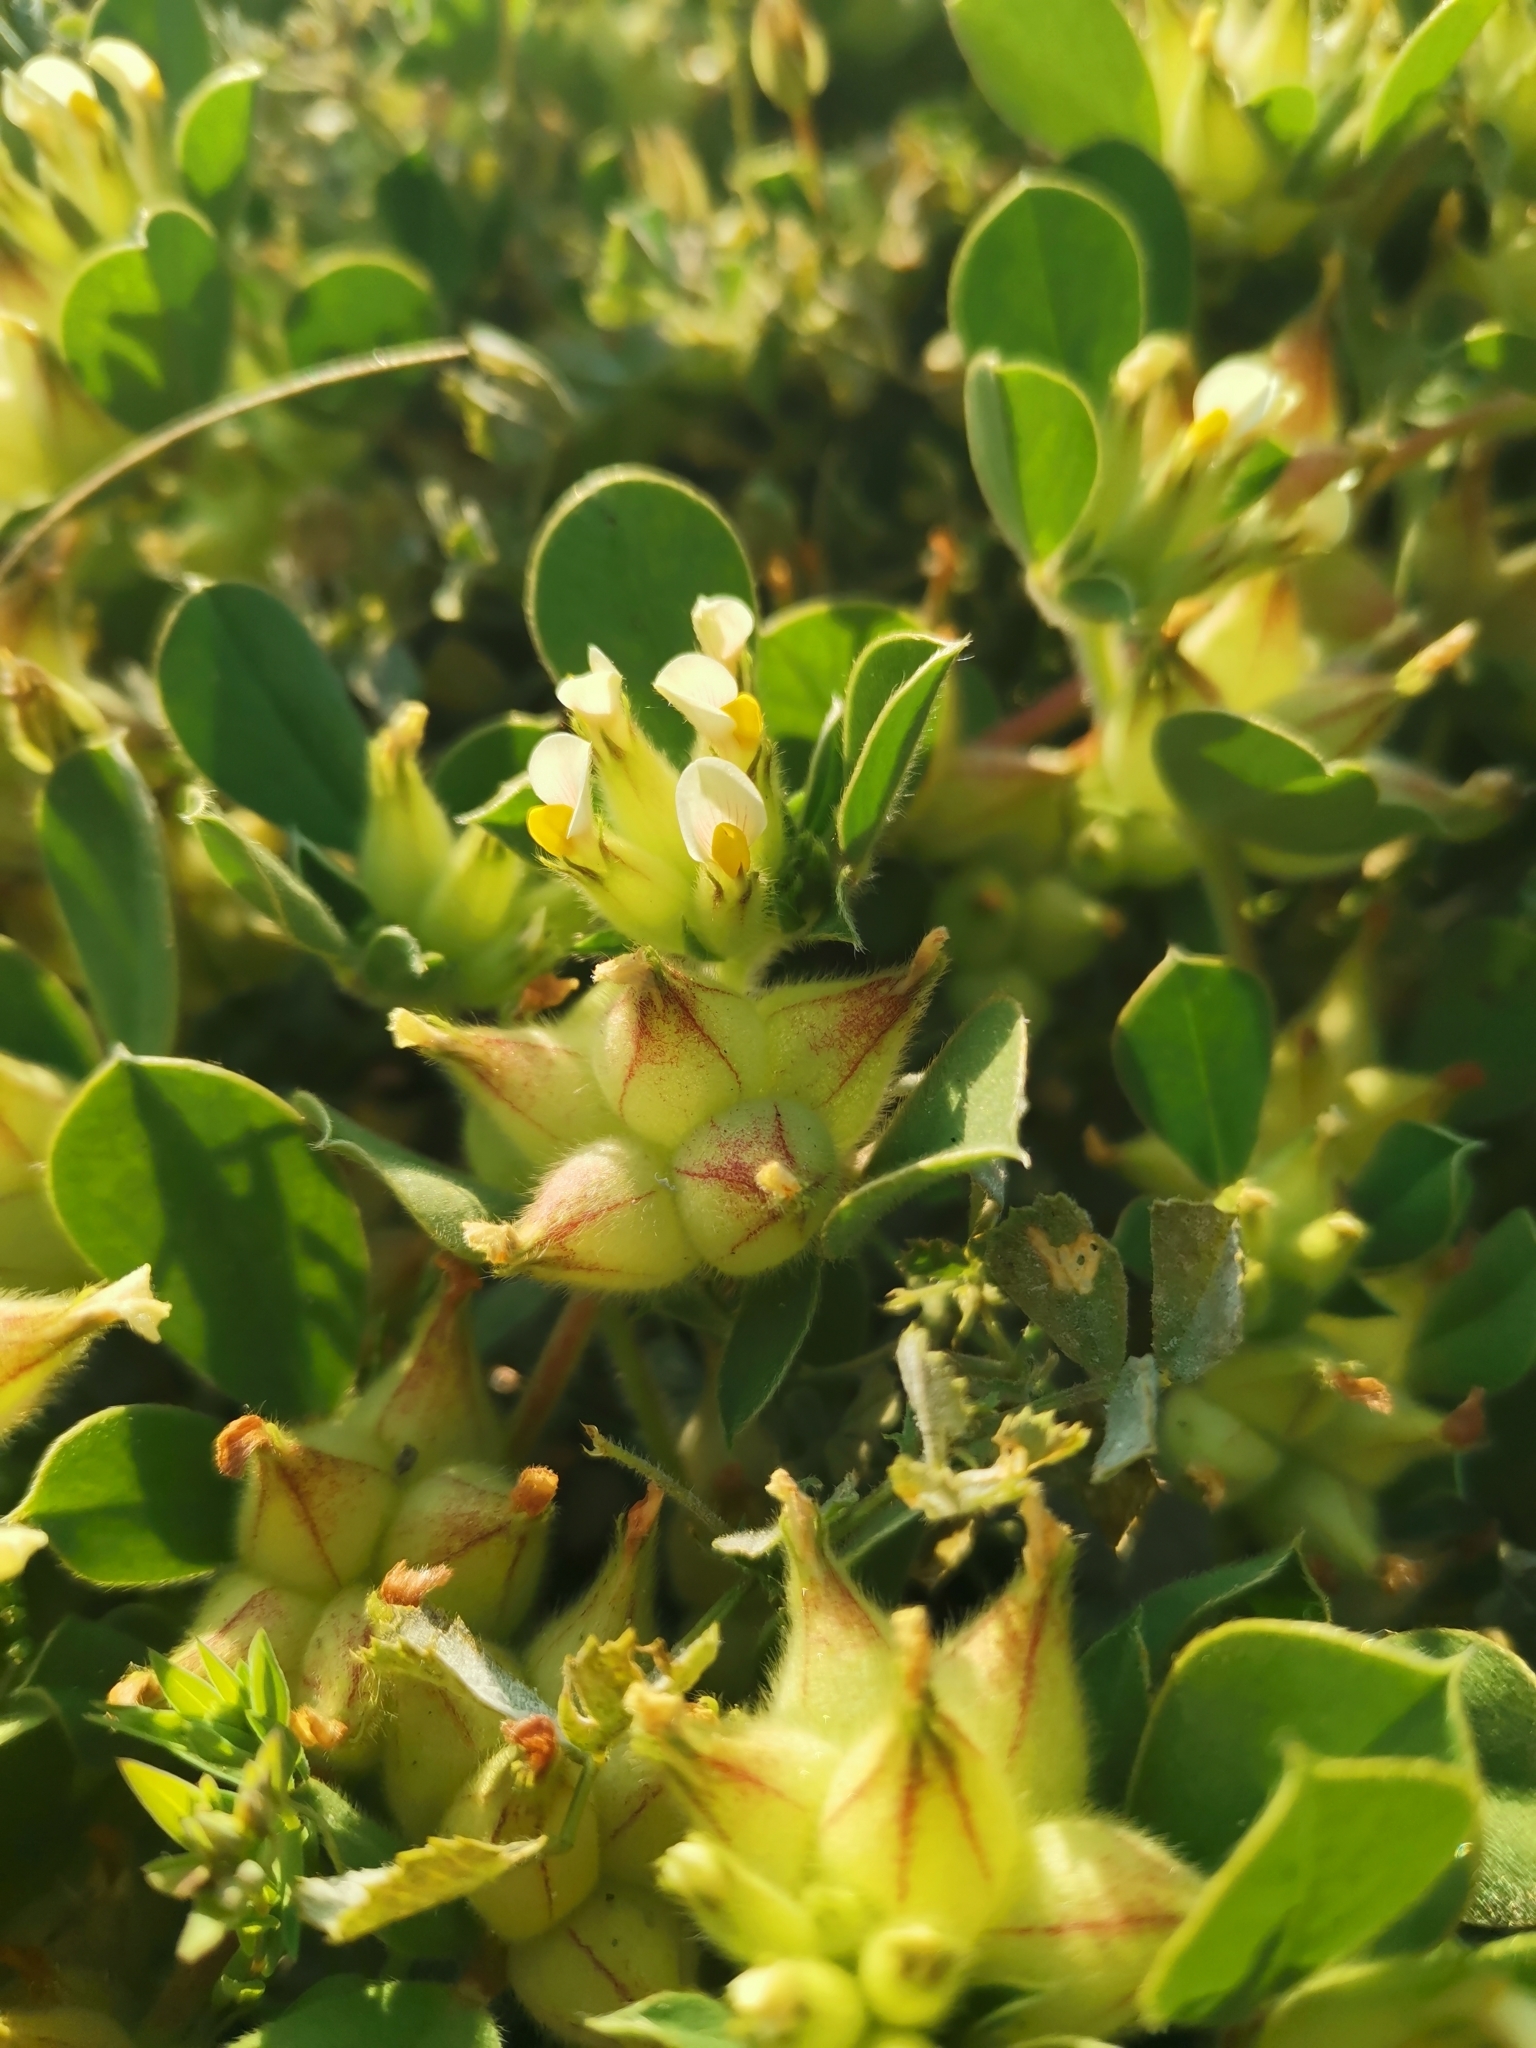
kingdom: Plantae
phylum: Tracheophyta
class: Magnoliopsida
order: Fabales
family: Fabaceae
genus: Tripodion
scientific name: Tripodion tetraphyllum
